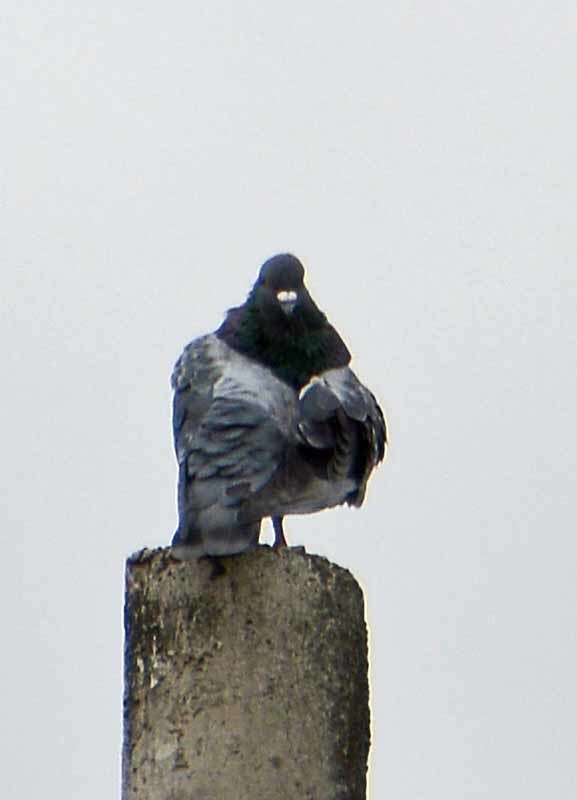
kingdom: Animalia
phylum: Chordata
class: Aves
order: Columbiformes
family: Columbidae
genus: Columba
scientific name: Columba livia
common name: Rock pigeon
